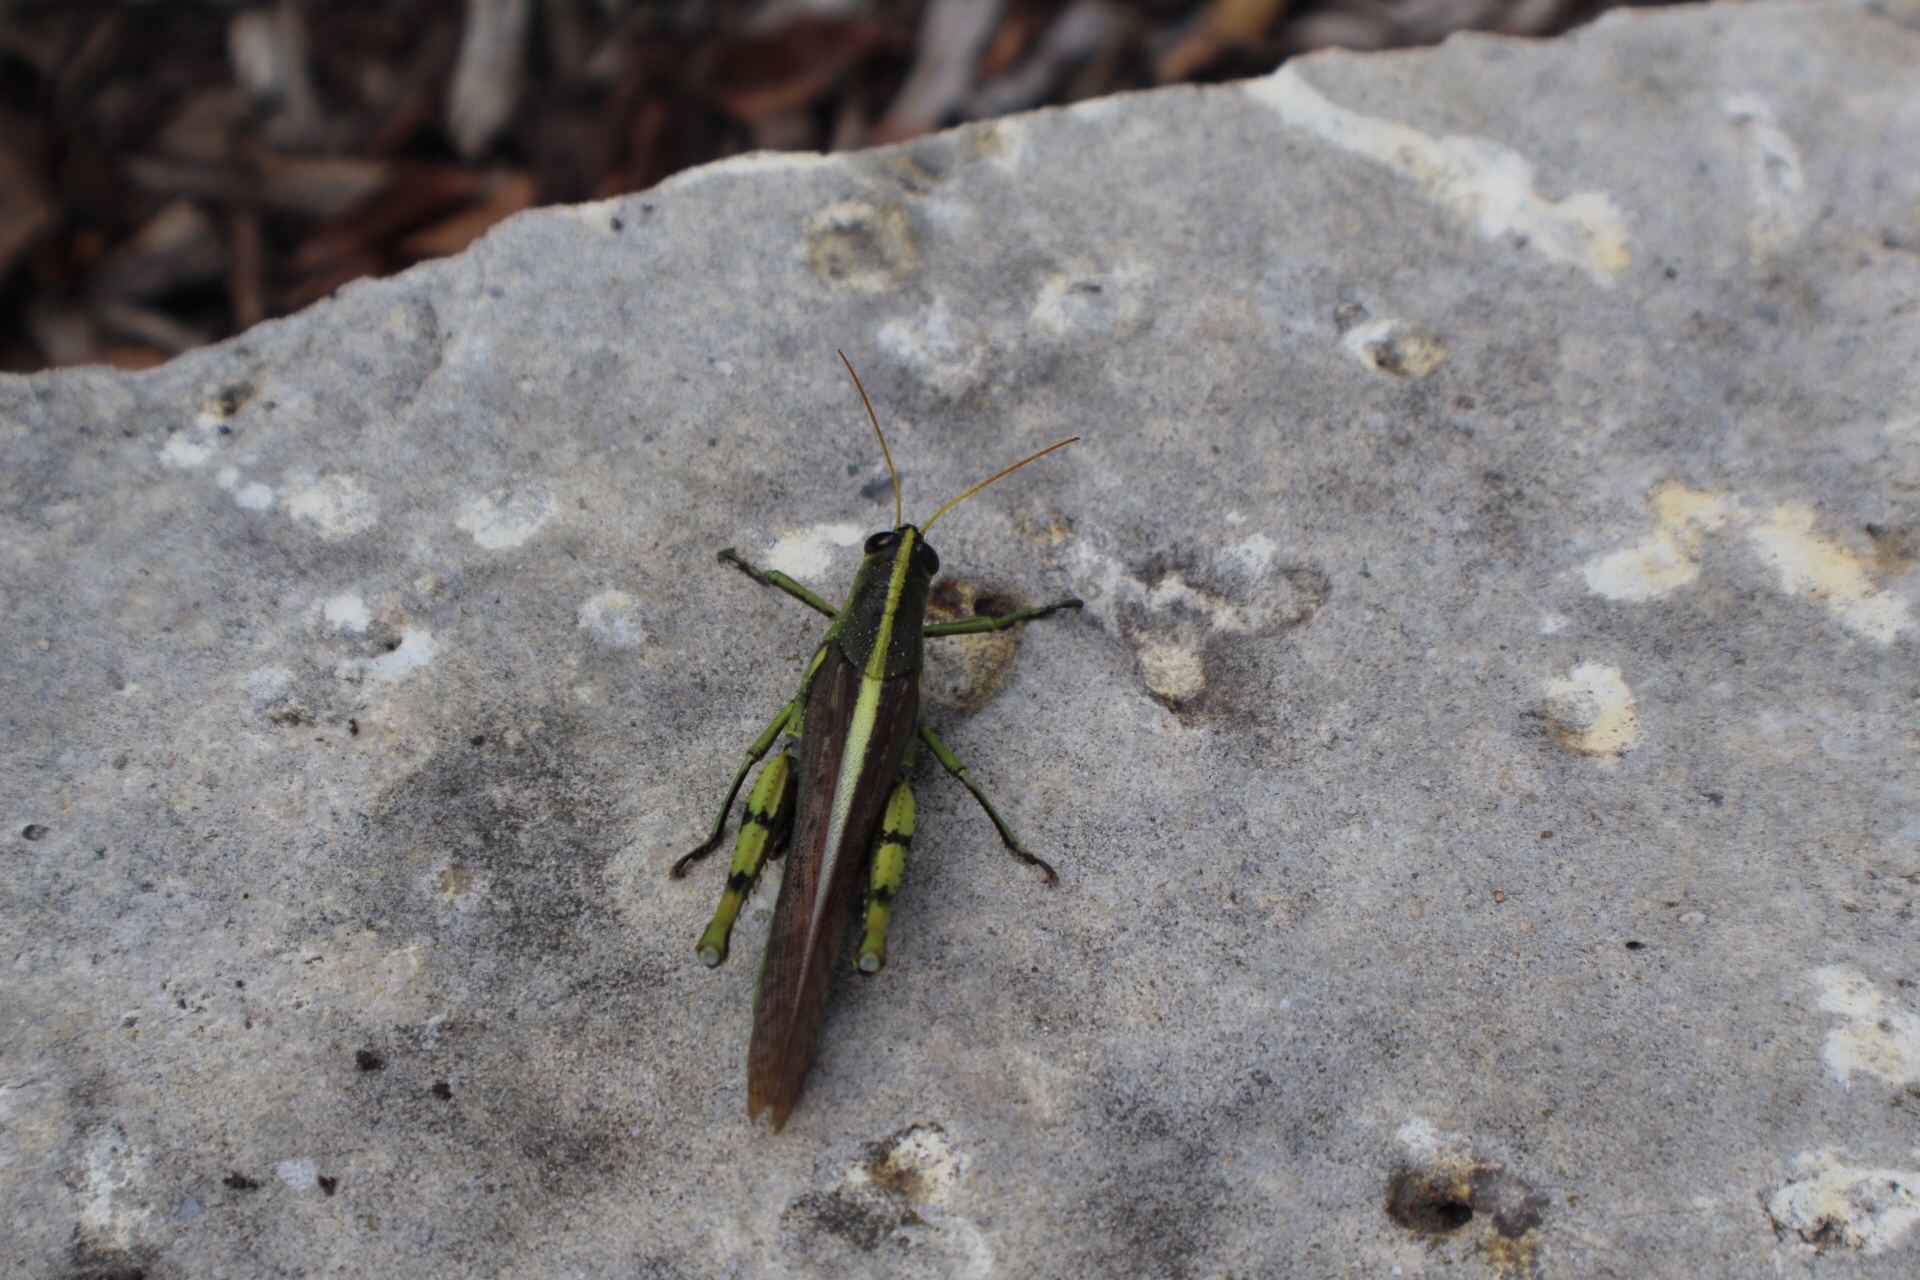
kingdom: Animalia
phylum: Arthropoda
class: Insecta
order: Orthoptera
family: Acrididae
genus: Schistocerca
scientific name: Schistocerca obscura
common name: Obscure bird grasshopper
